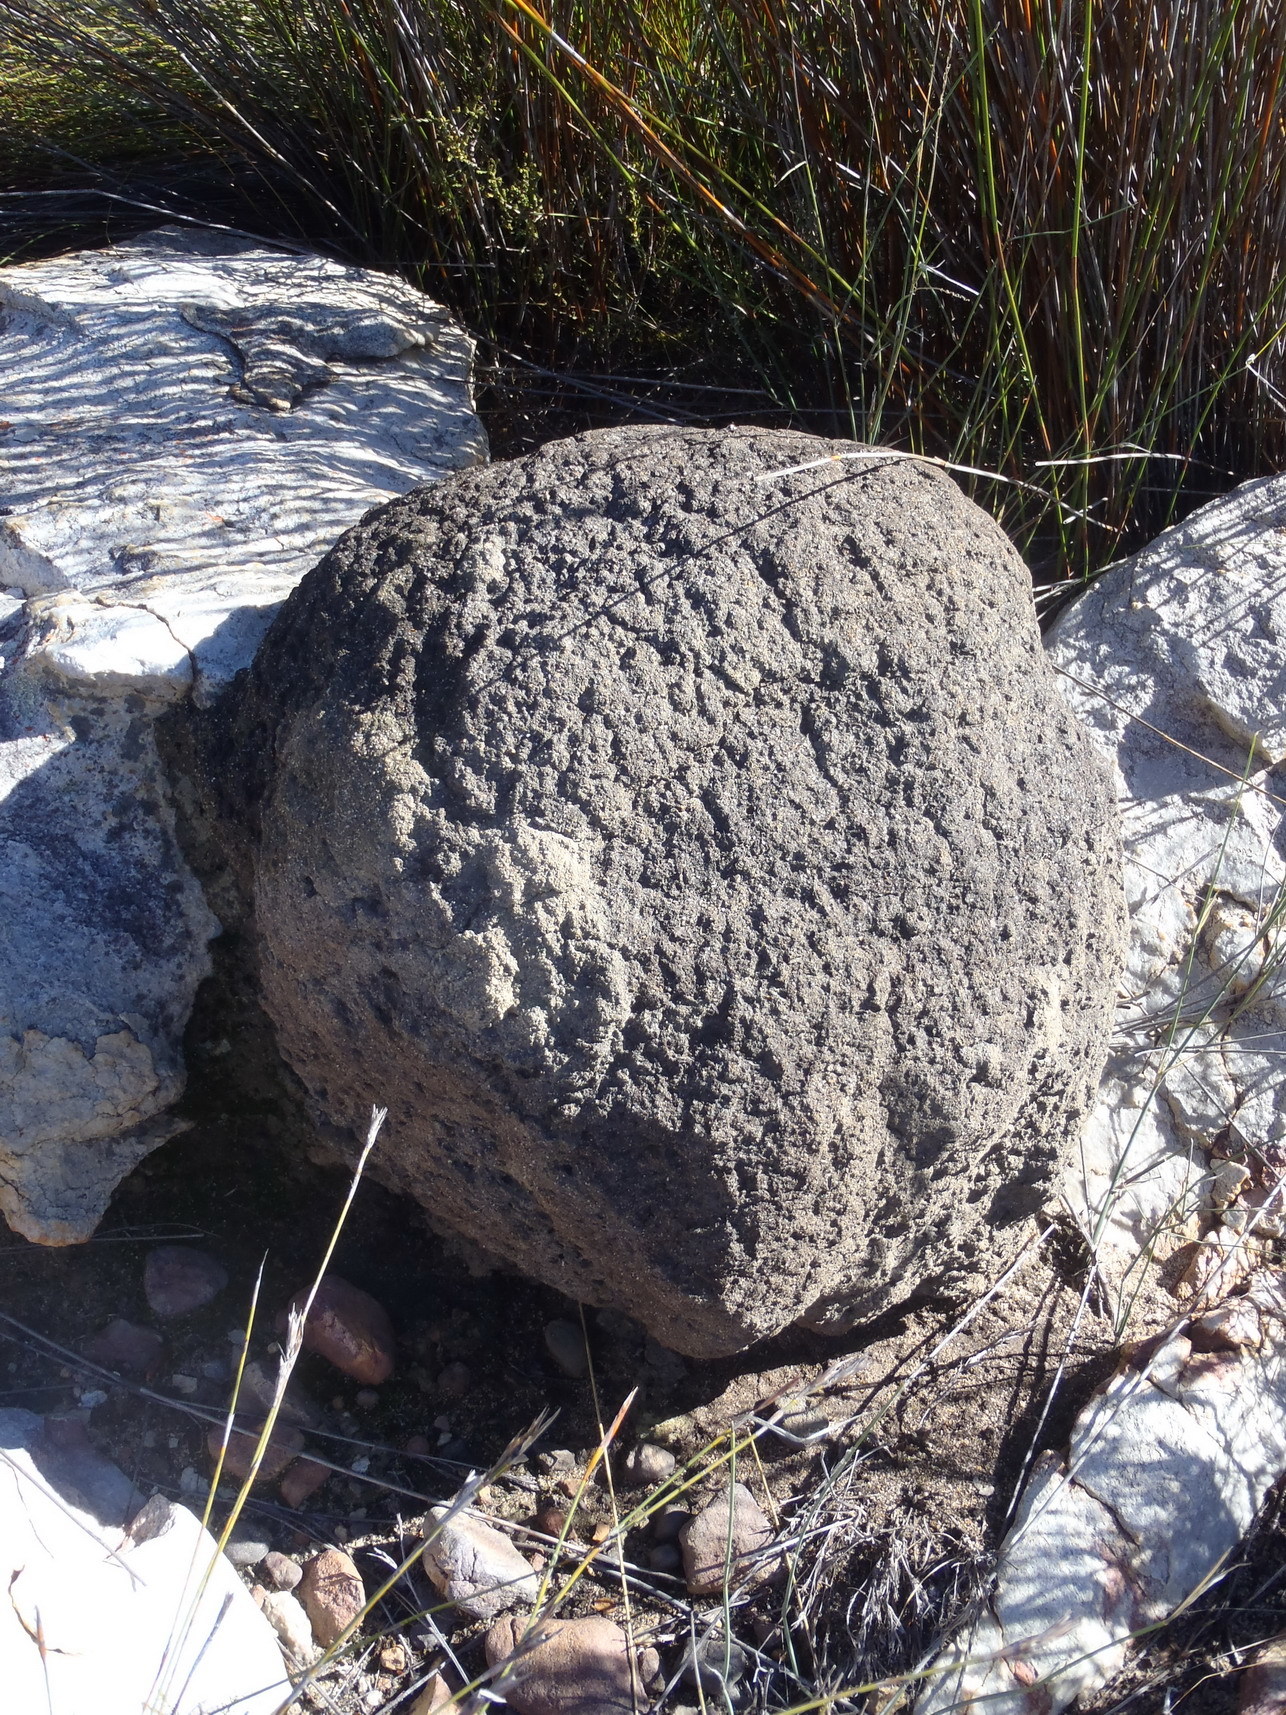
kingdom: Animalia
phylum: Arthropoda
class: Insecta
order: Blattodea
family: Termitidae
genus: Amitermes
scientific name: Amitermes hastatus
